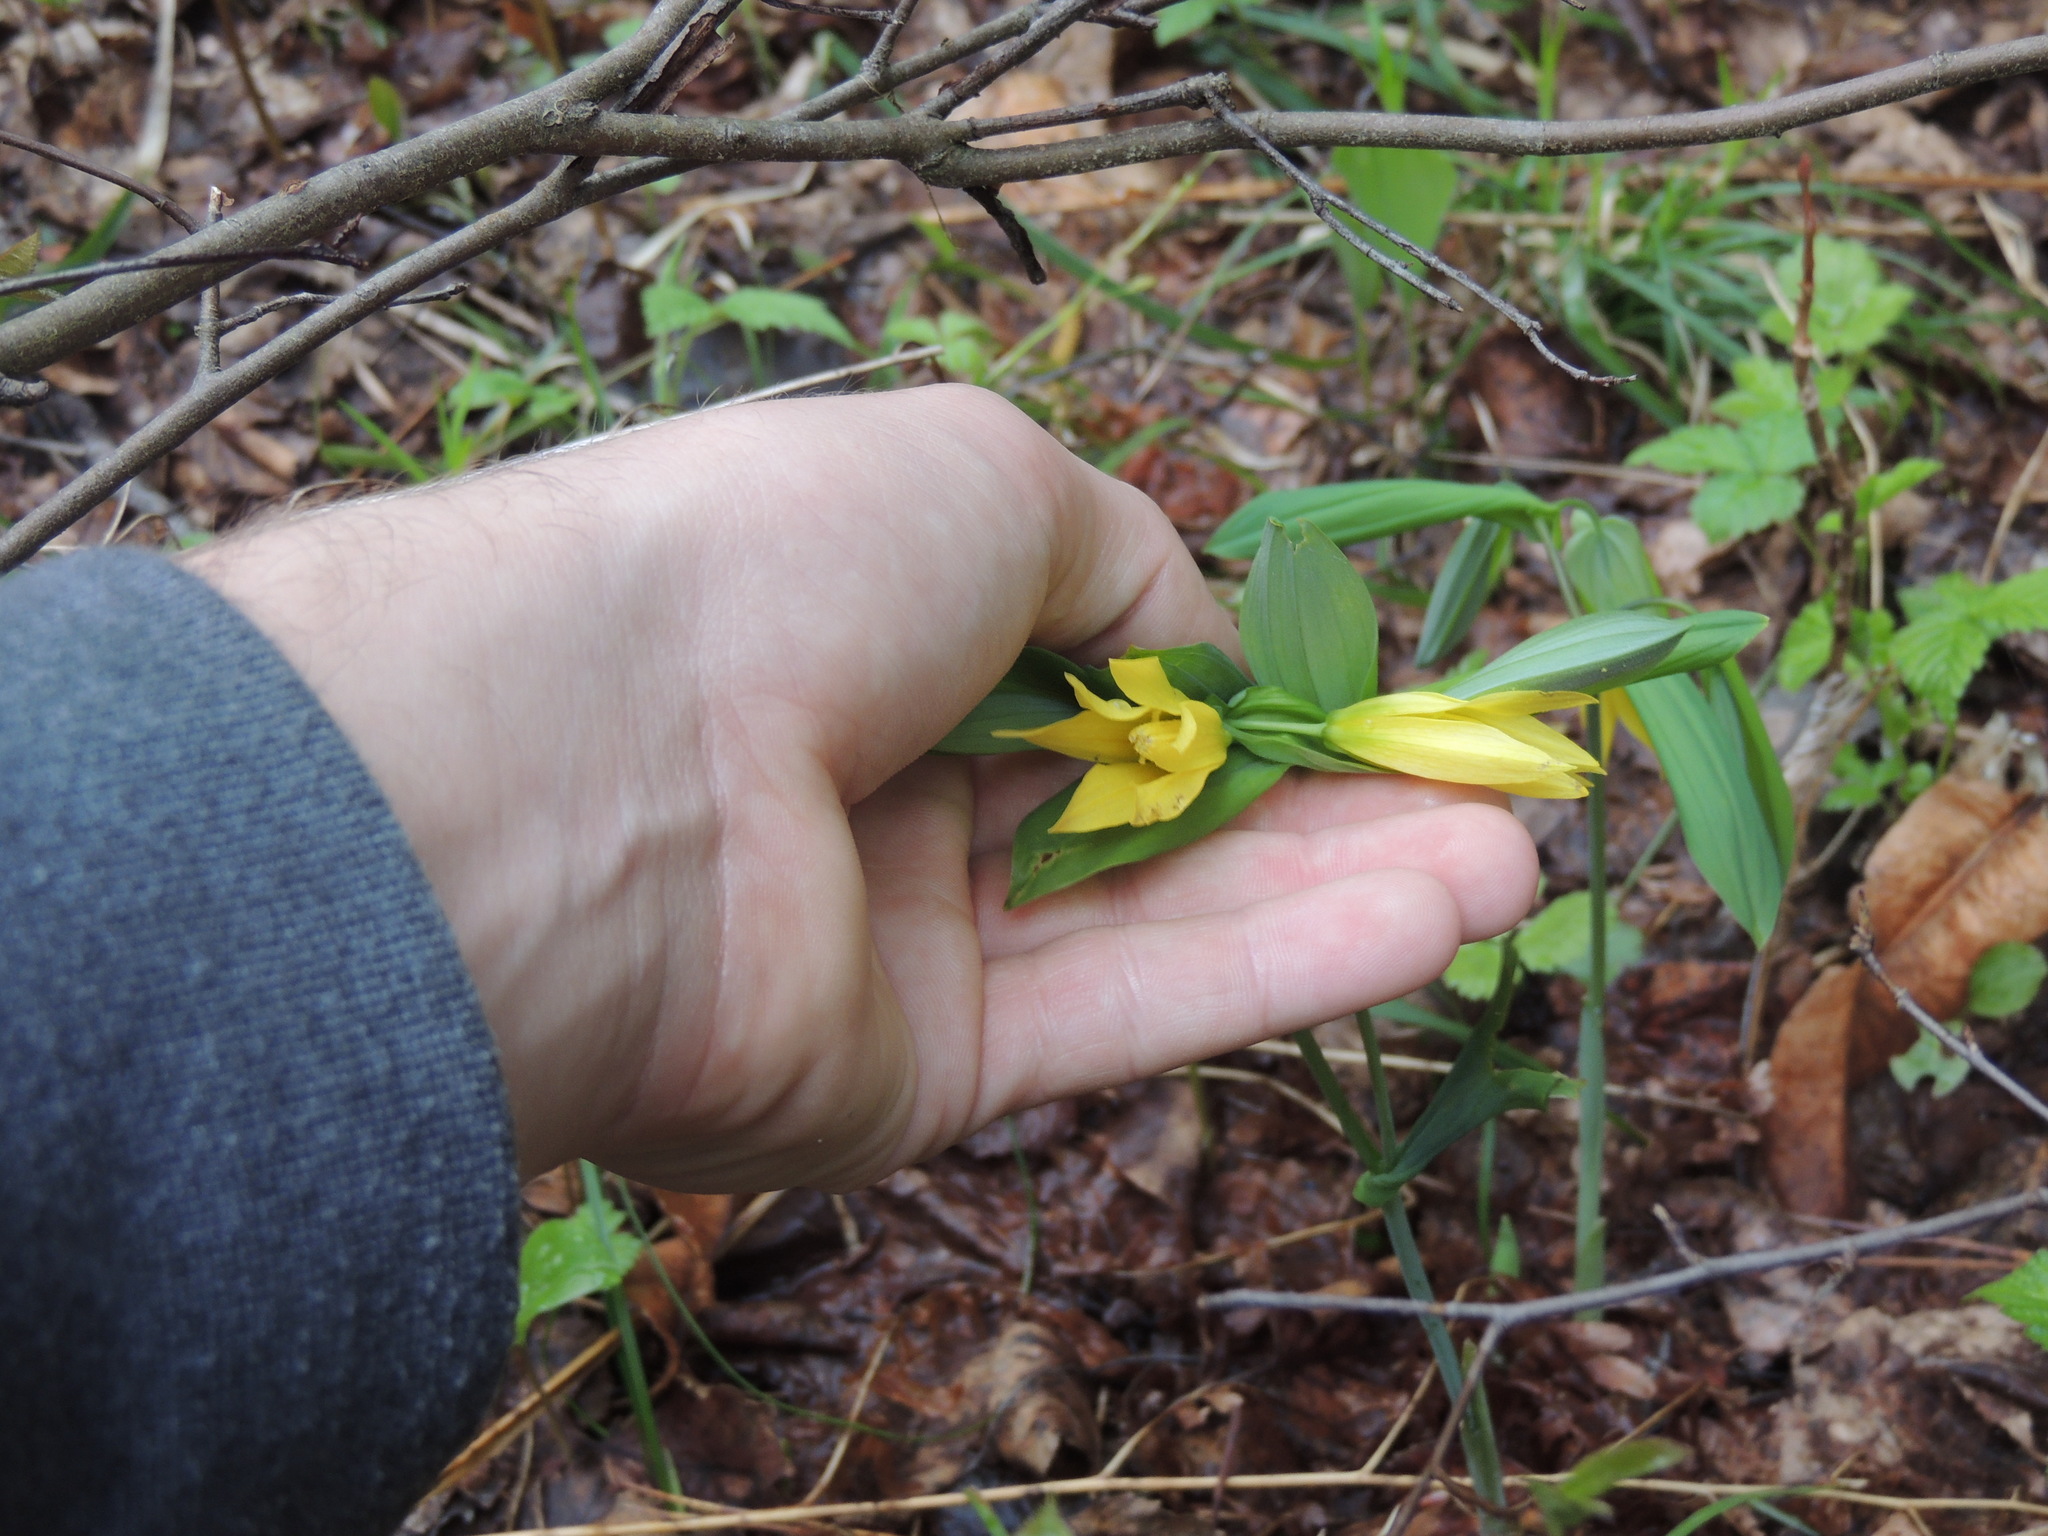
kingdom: Plantae
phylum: Tracheophyta
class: Liliopsida
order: Liliales
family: Colchicaceae
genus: Uvularia
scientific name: Uvularia grandiflora
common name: Bellwort
